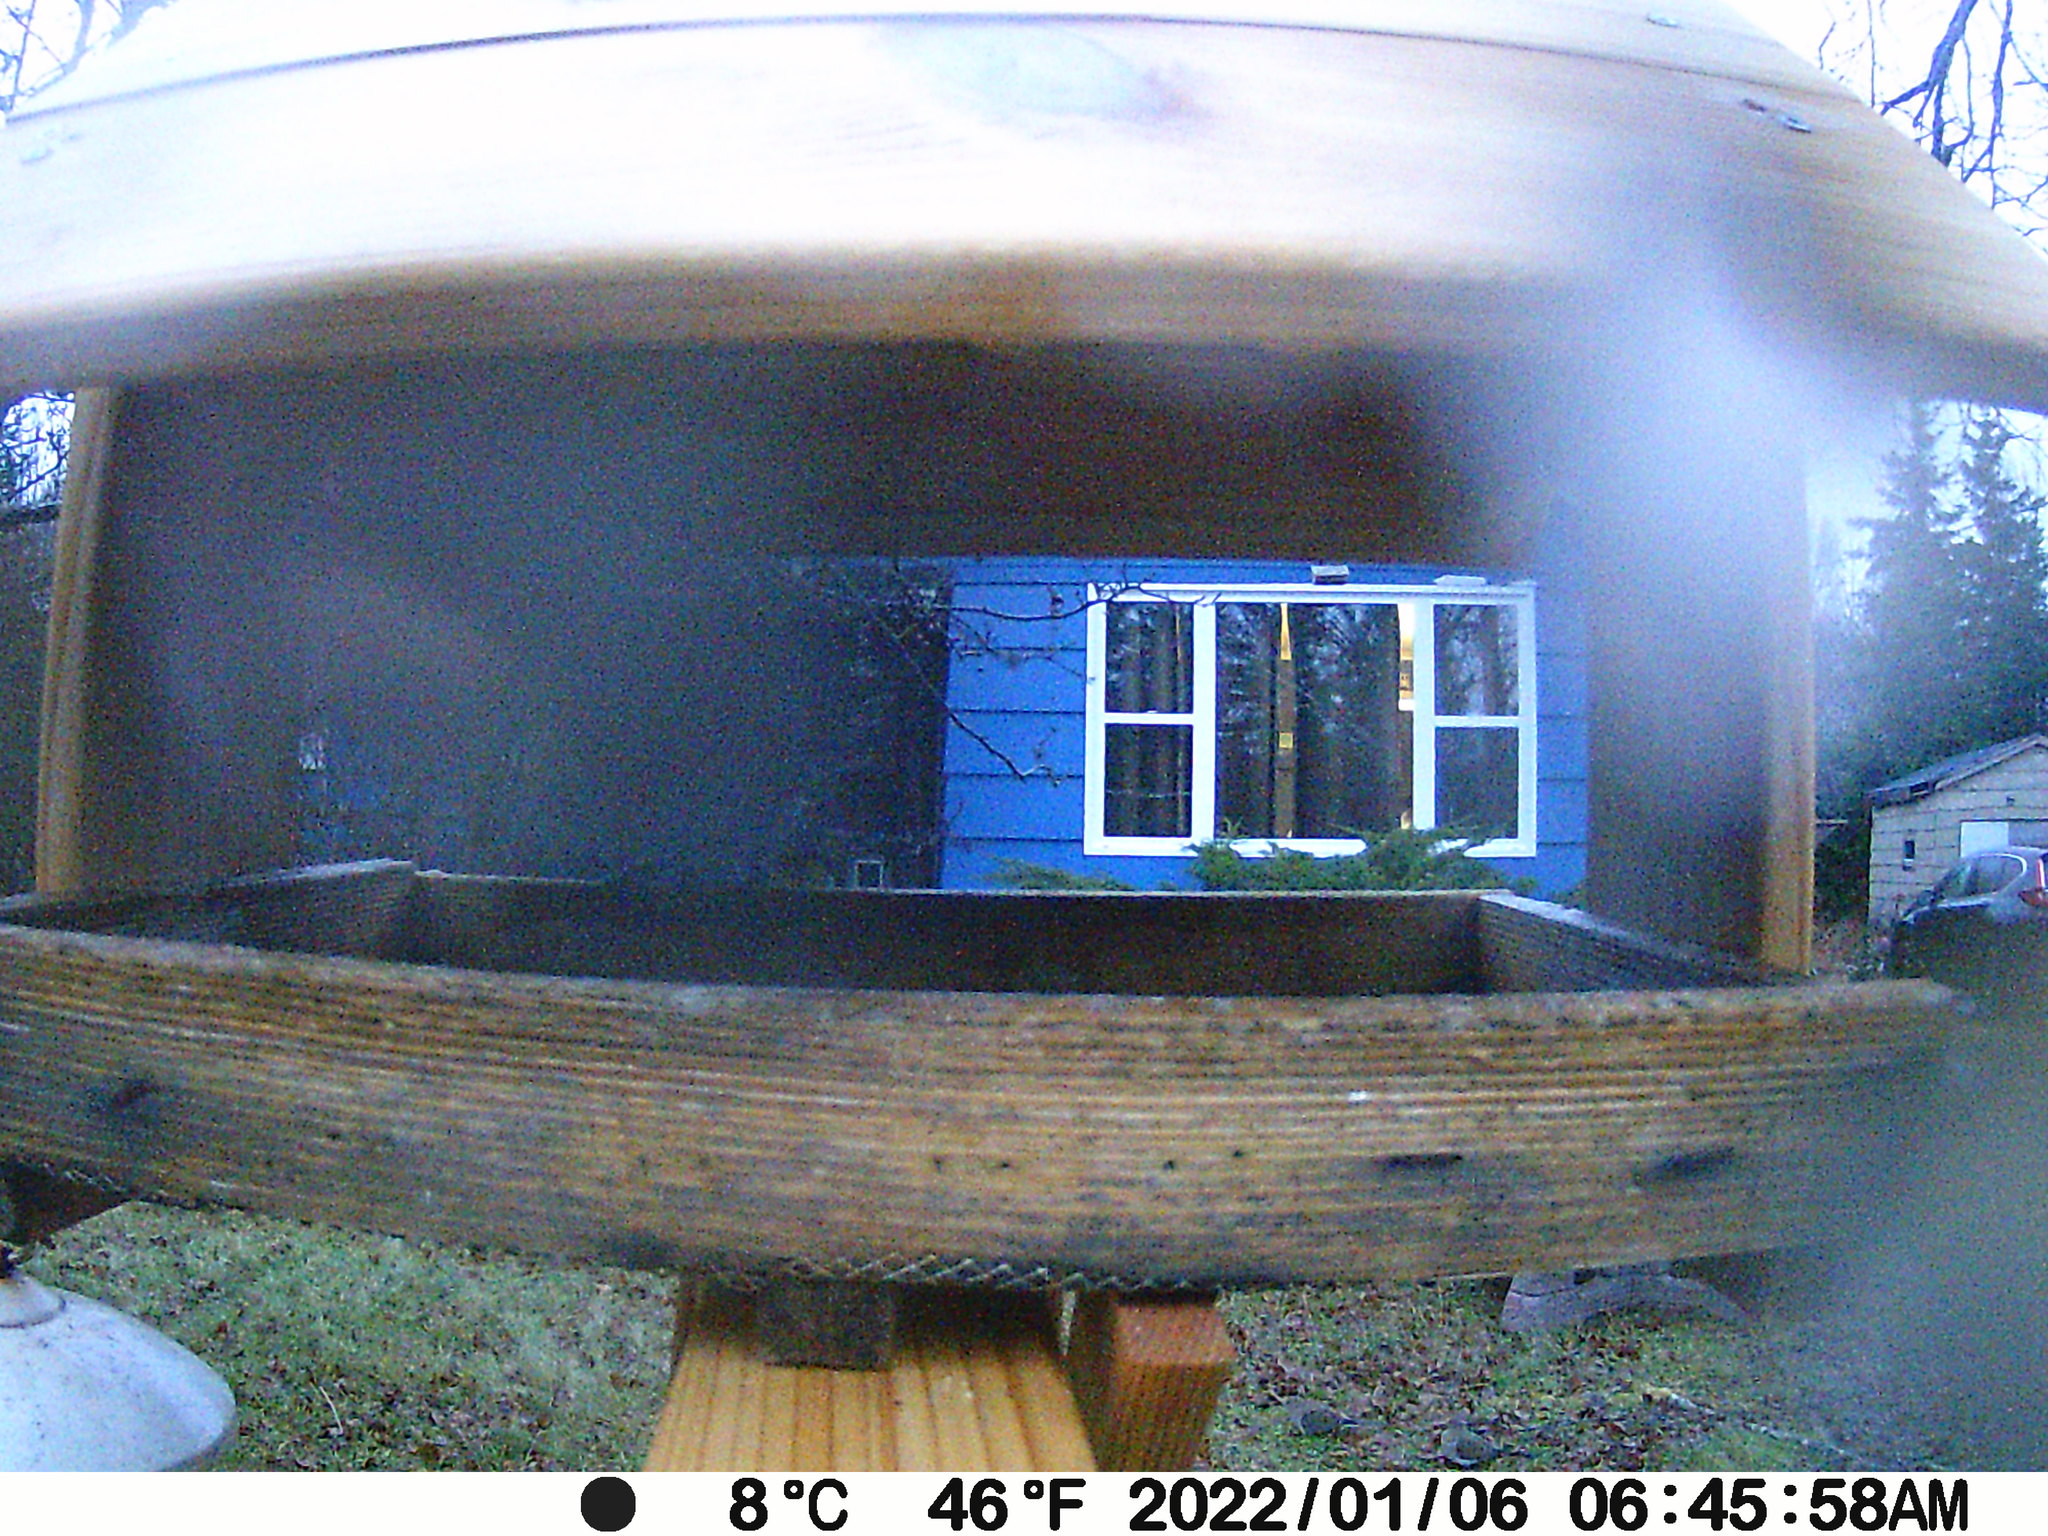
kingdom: Animalia
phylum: Chordata
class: Aves
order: Columbiformes
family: Columbidae
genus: Zenaida
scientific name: Zenaida macroura
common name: Mourning dove
